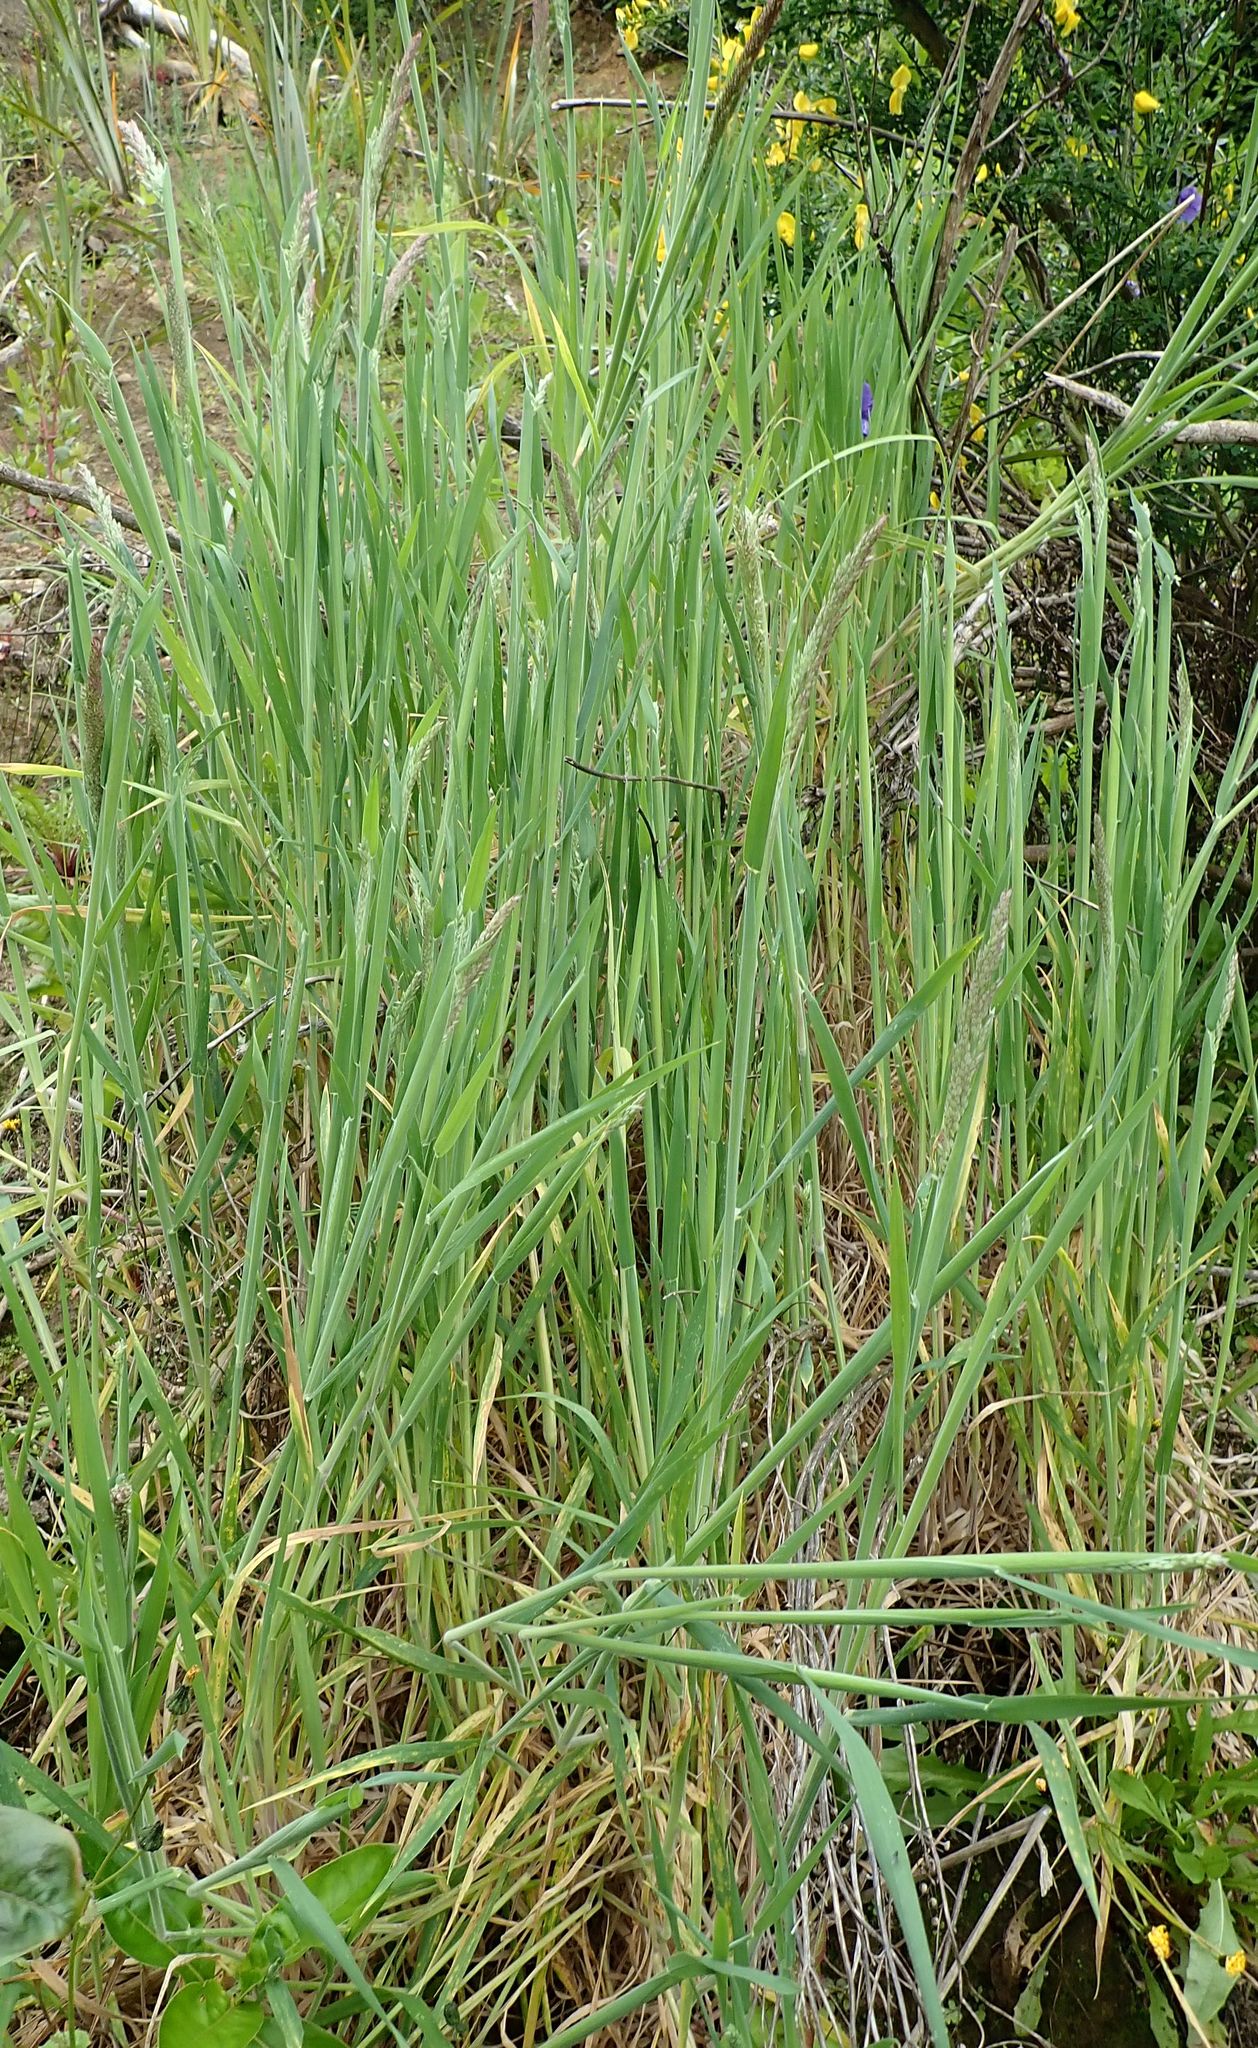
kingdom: Plantae
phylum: Tracheophyta
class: Liliopsida
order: Poales
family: Poaceae
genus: Holcus
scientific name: Holcus lanatus
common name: Yorkshire-fog
